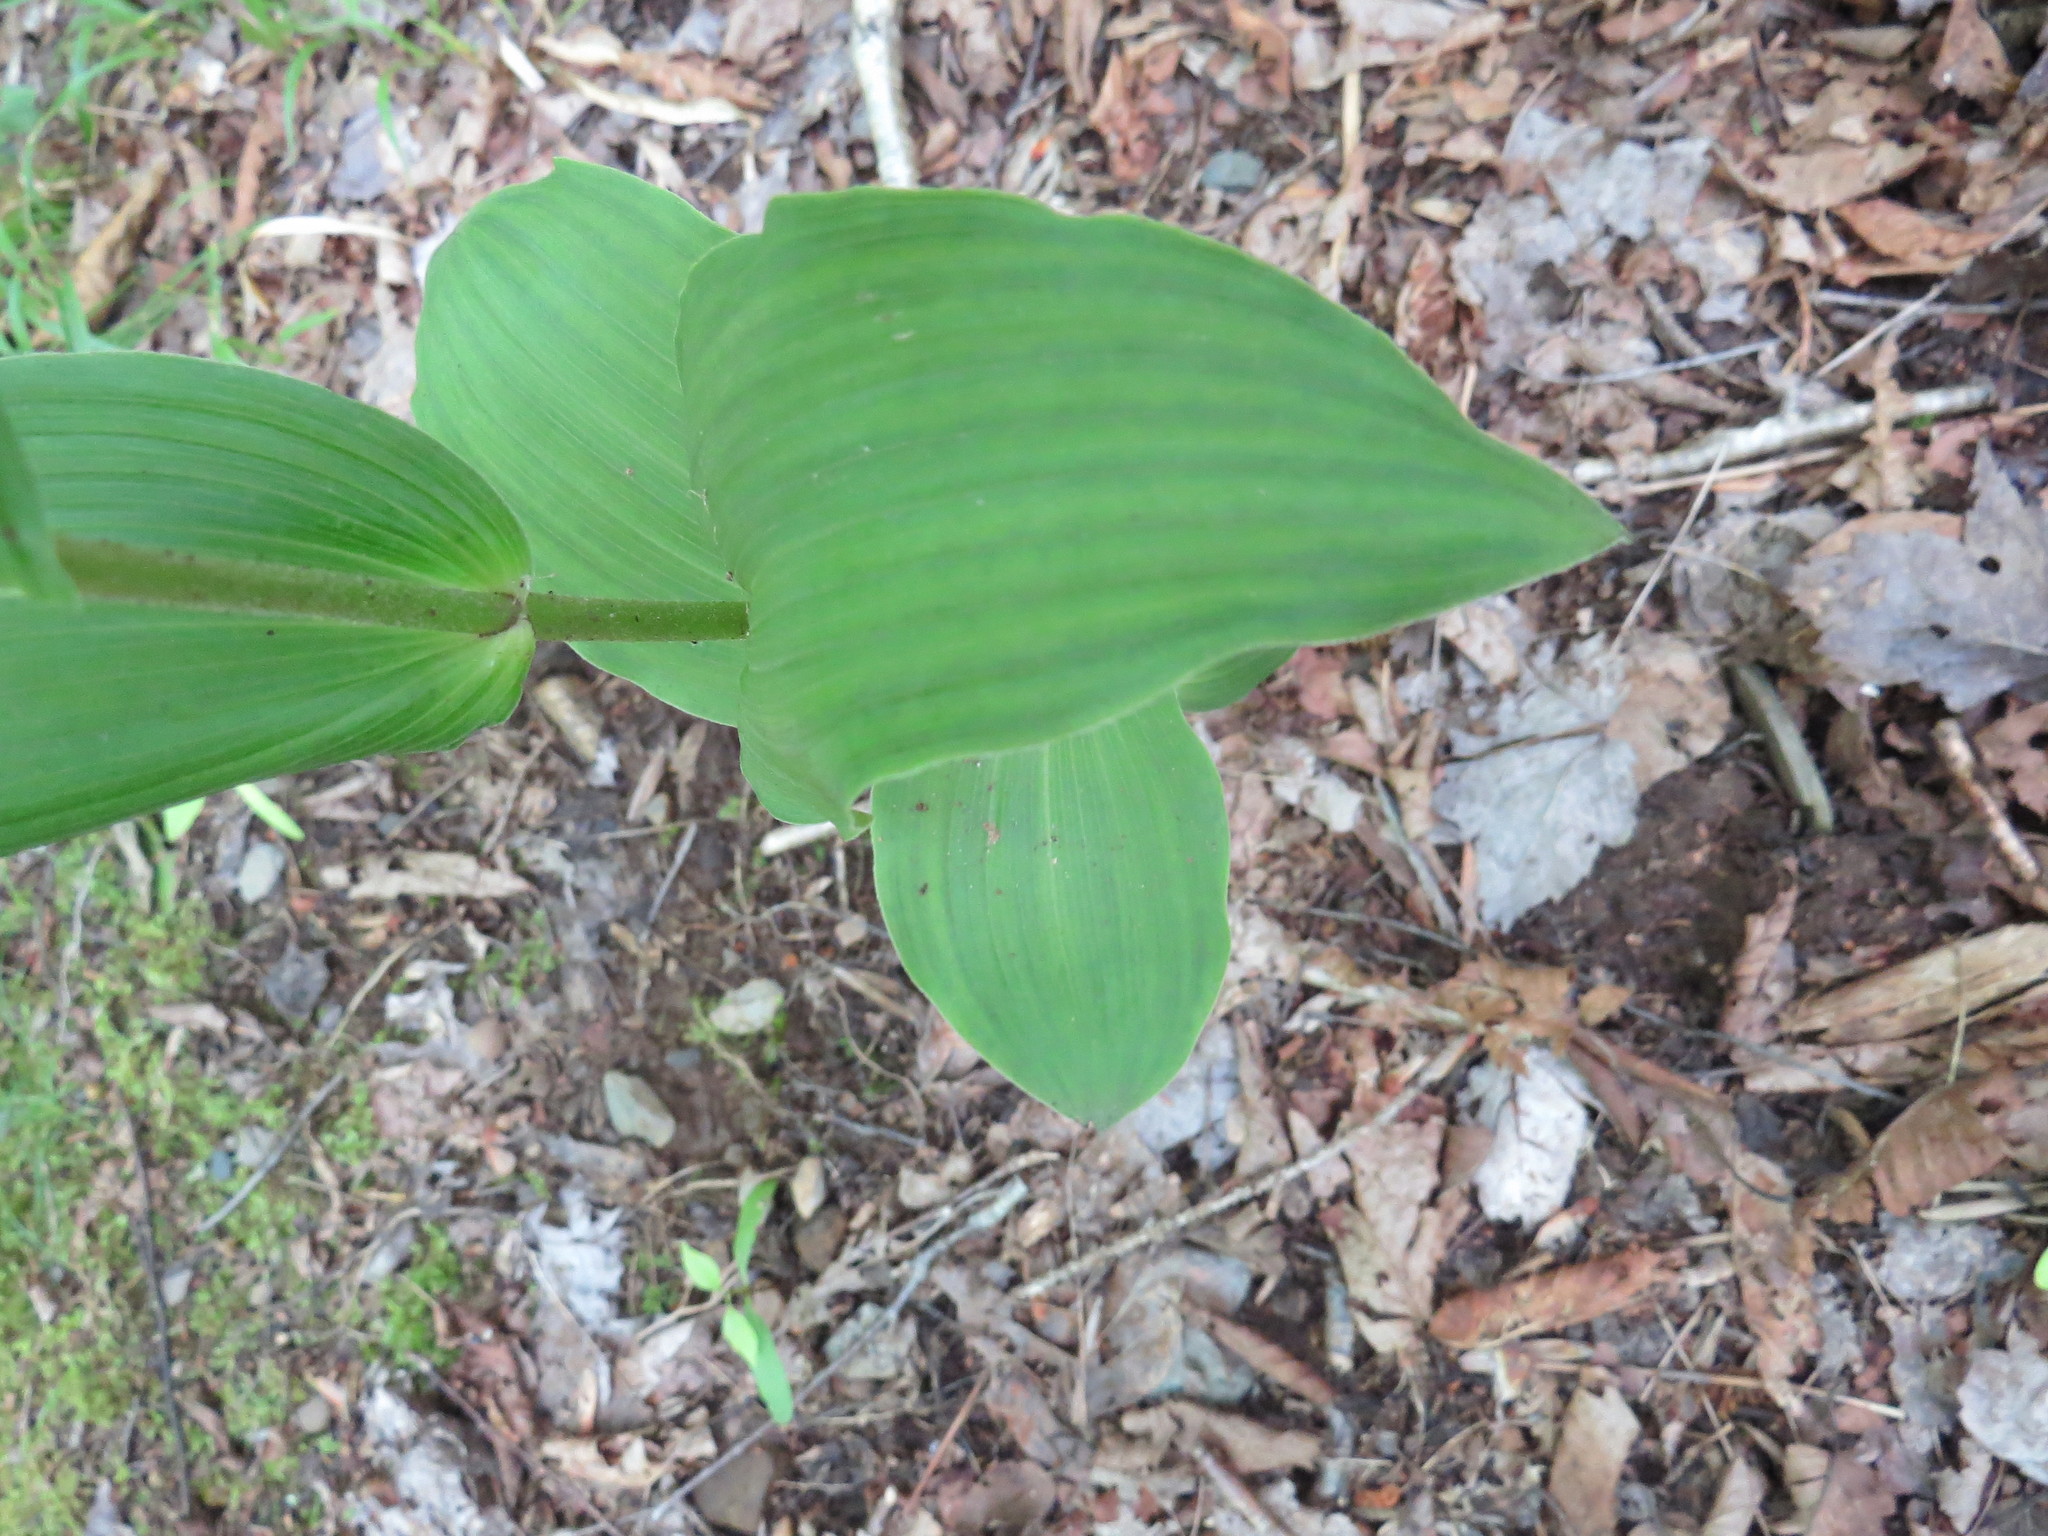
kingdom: Plantae
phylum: Tracheophyta
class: Liliopsida
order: Asparagales
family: Orchidaceae
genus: Epipactis
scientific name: Epipactis helleborine
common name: Broad-leaved helleborine
